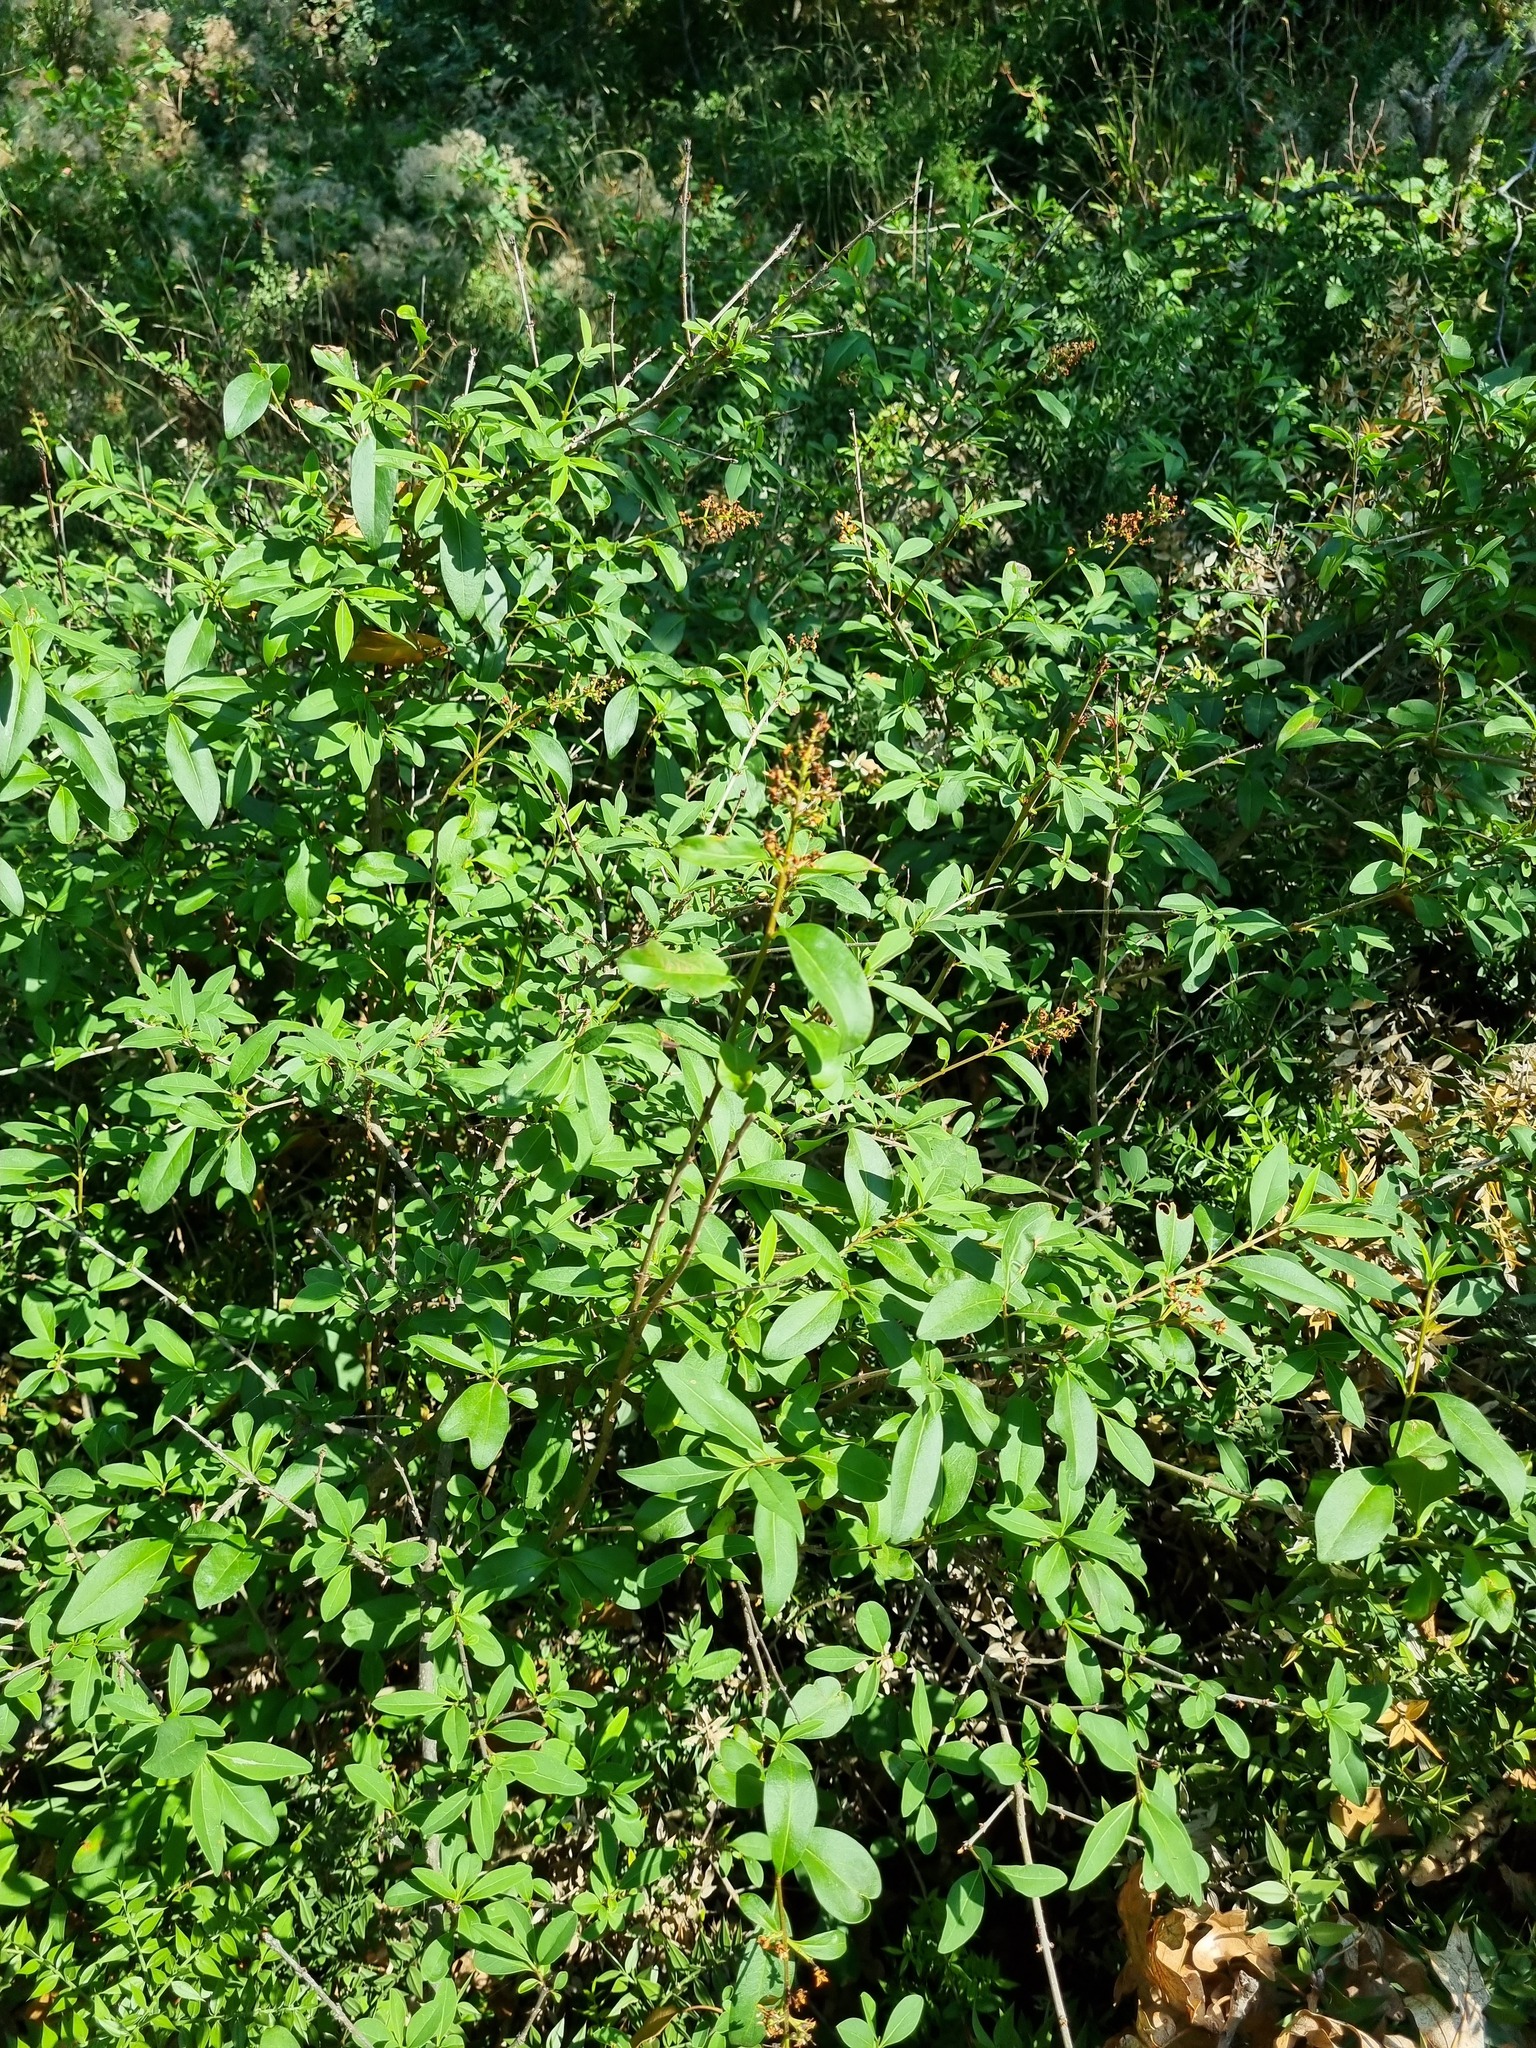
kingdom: Plantae
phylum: Tracheophyta
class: Magnoliopsida
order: Lamiales
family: Oleaceae
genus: Ligustrum
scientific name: Ligustrum vulgare
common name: Wild privet
